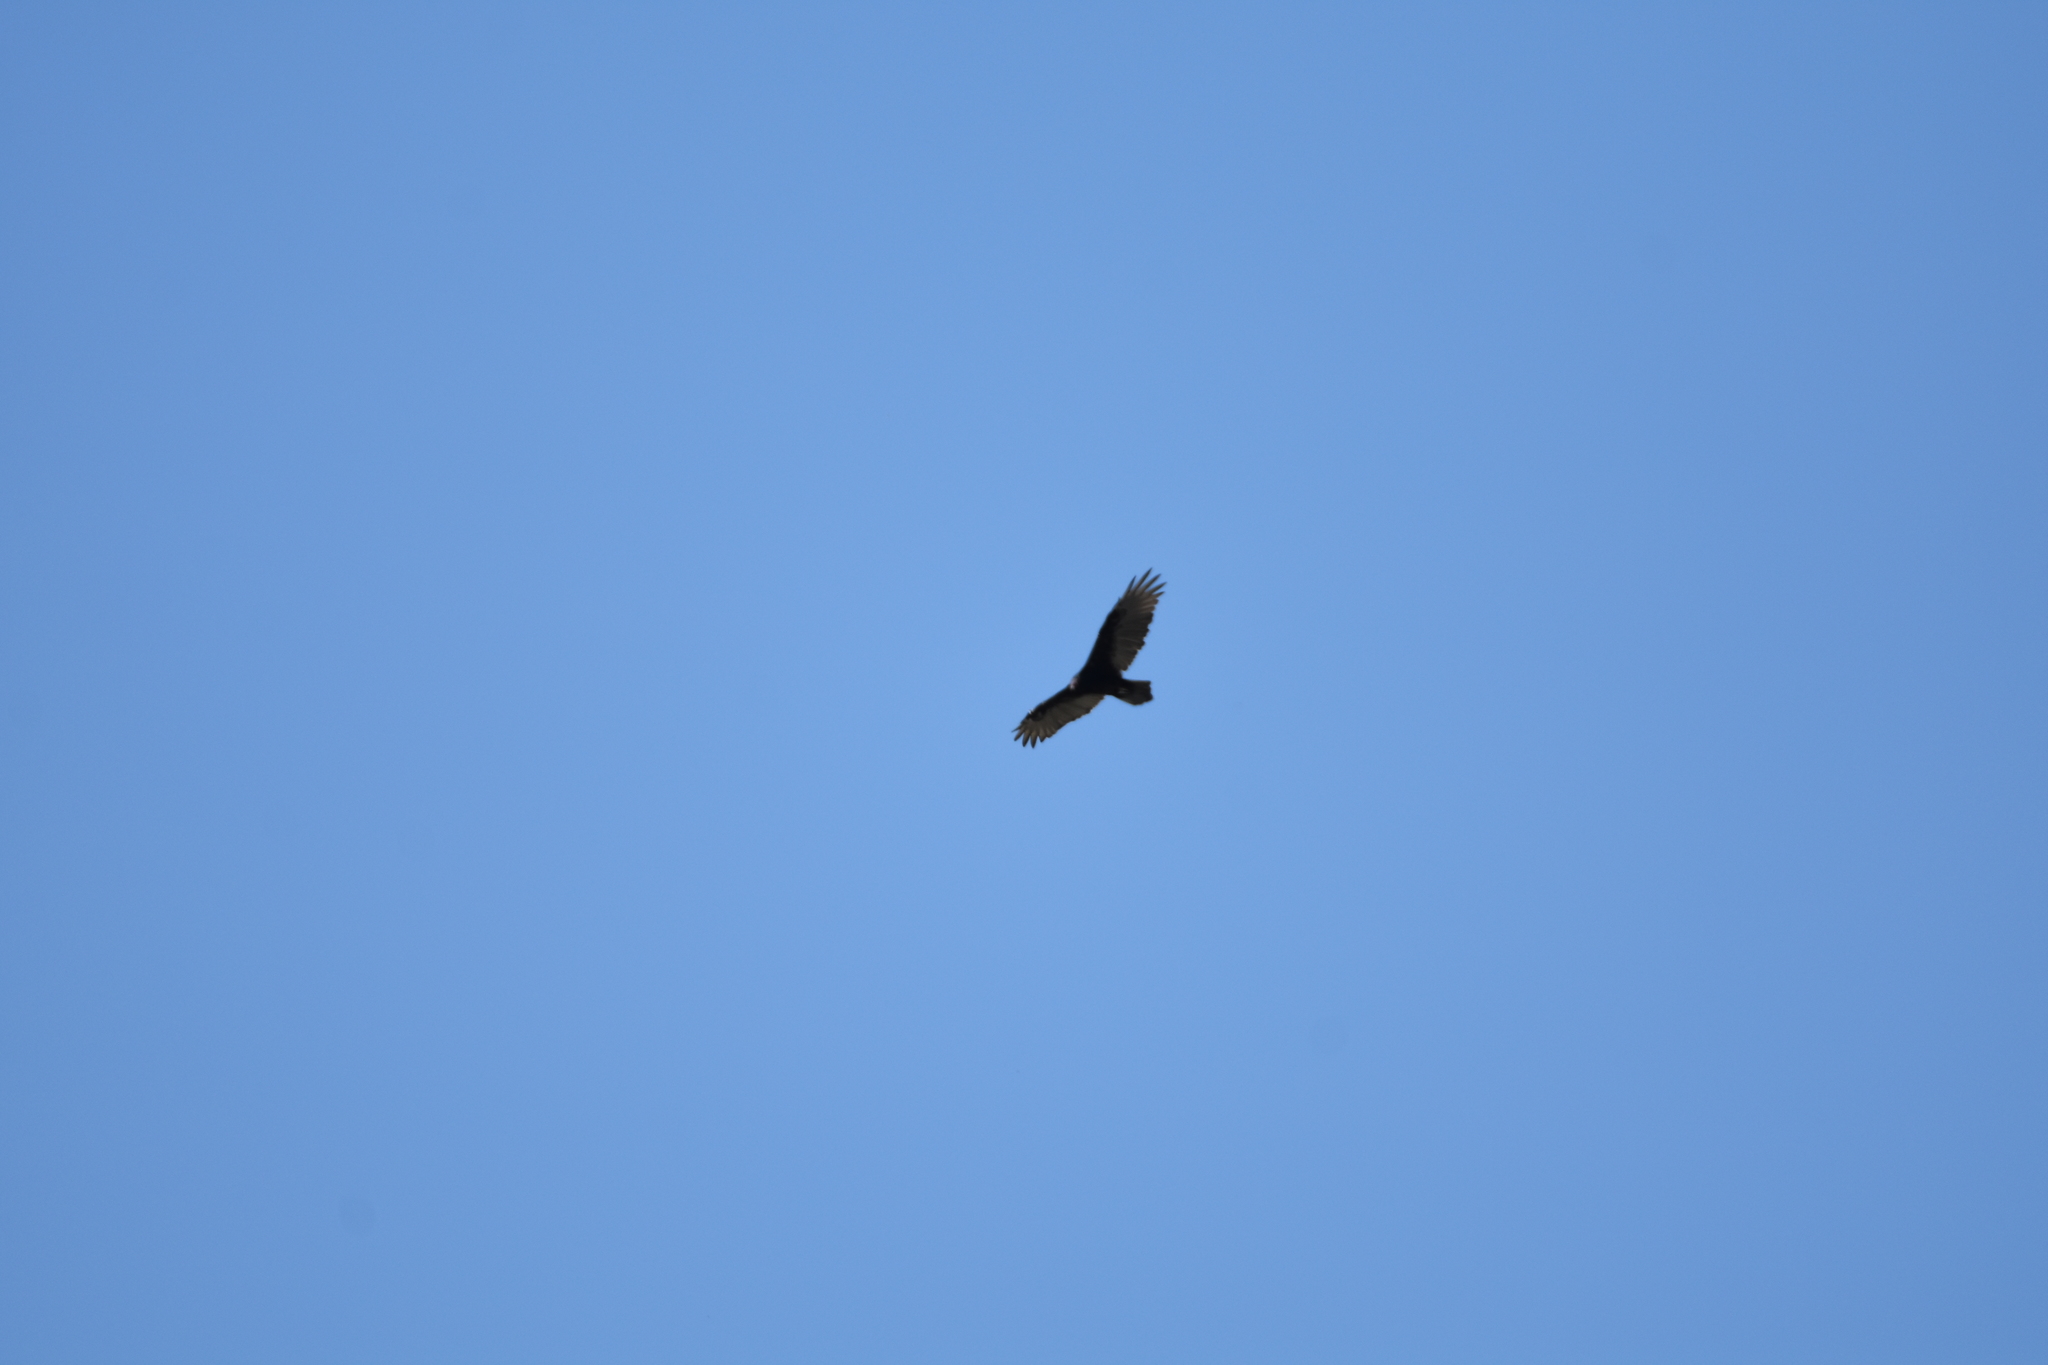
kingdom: Animalia
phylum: Chordata
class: Aves
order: Accipitriformes
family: Cathartidae
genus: Cathartes
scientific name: Cathartes aura
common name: Turkey vulture
